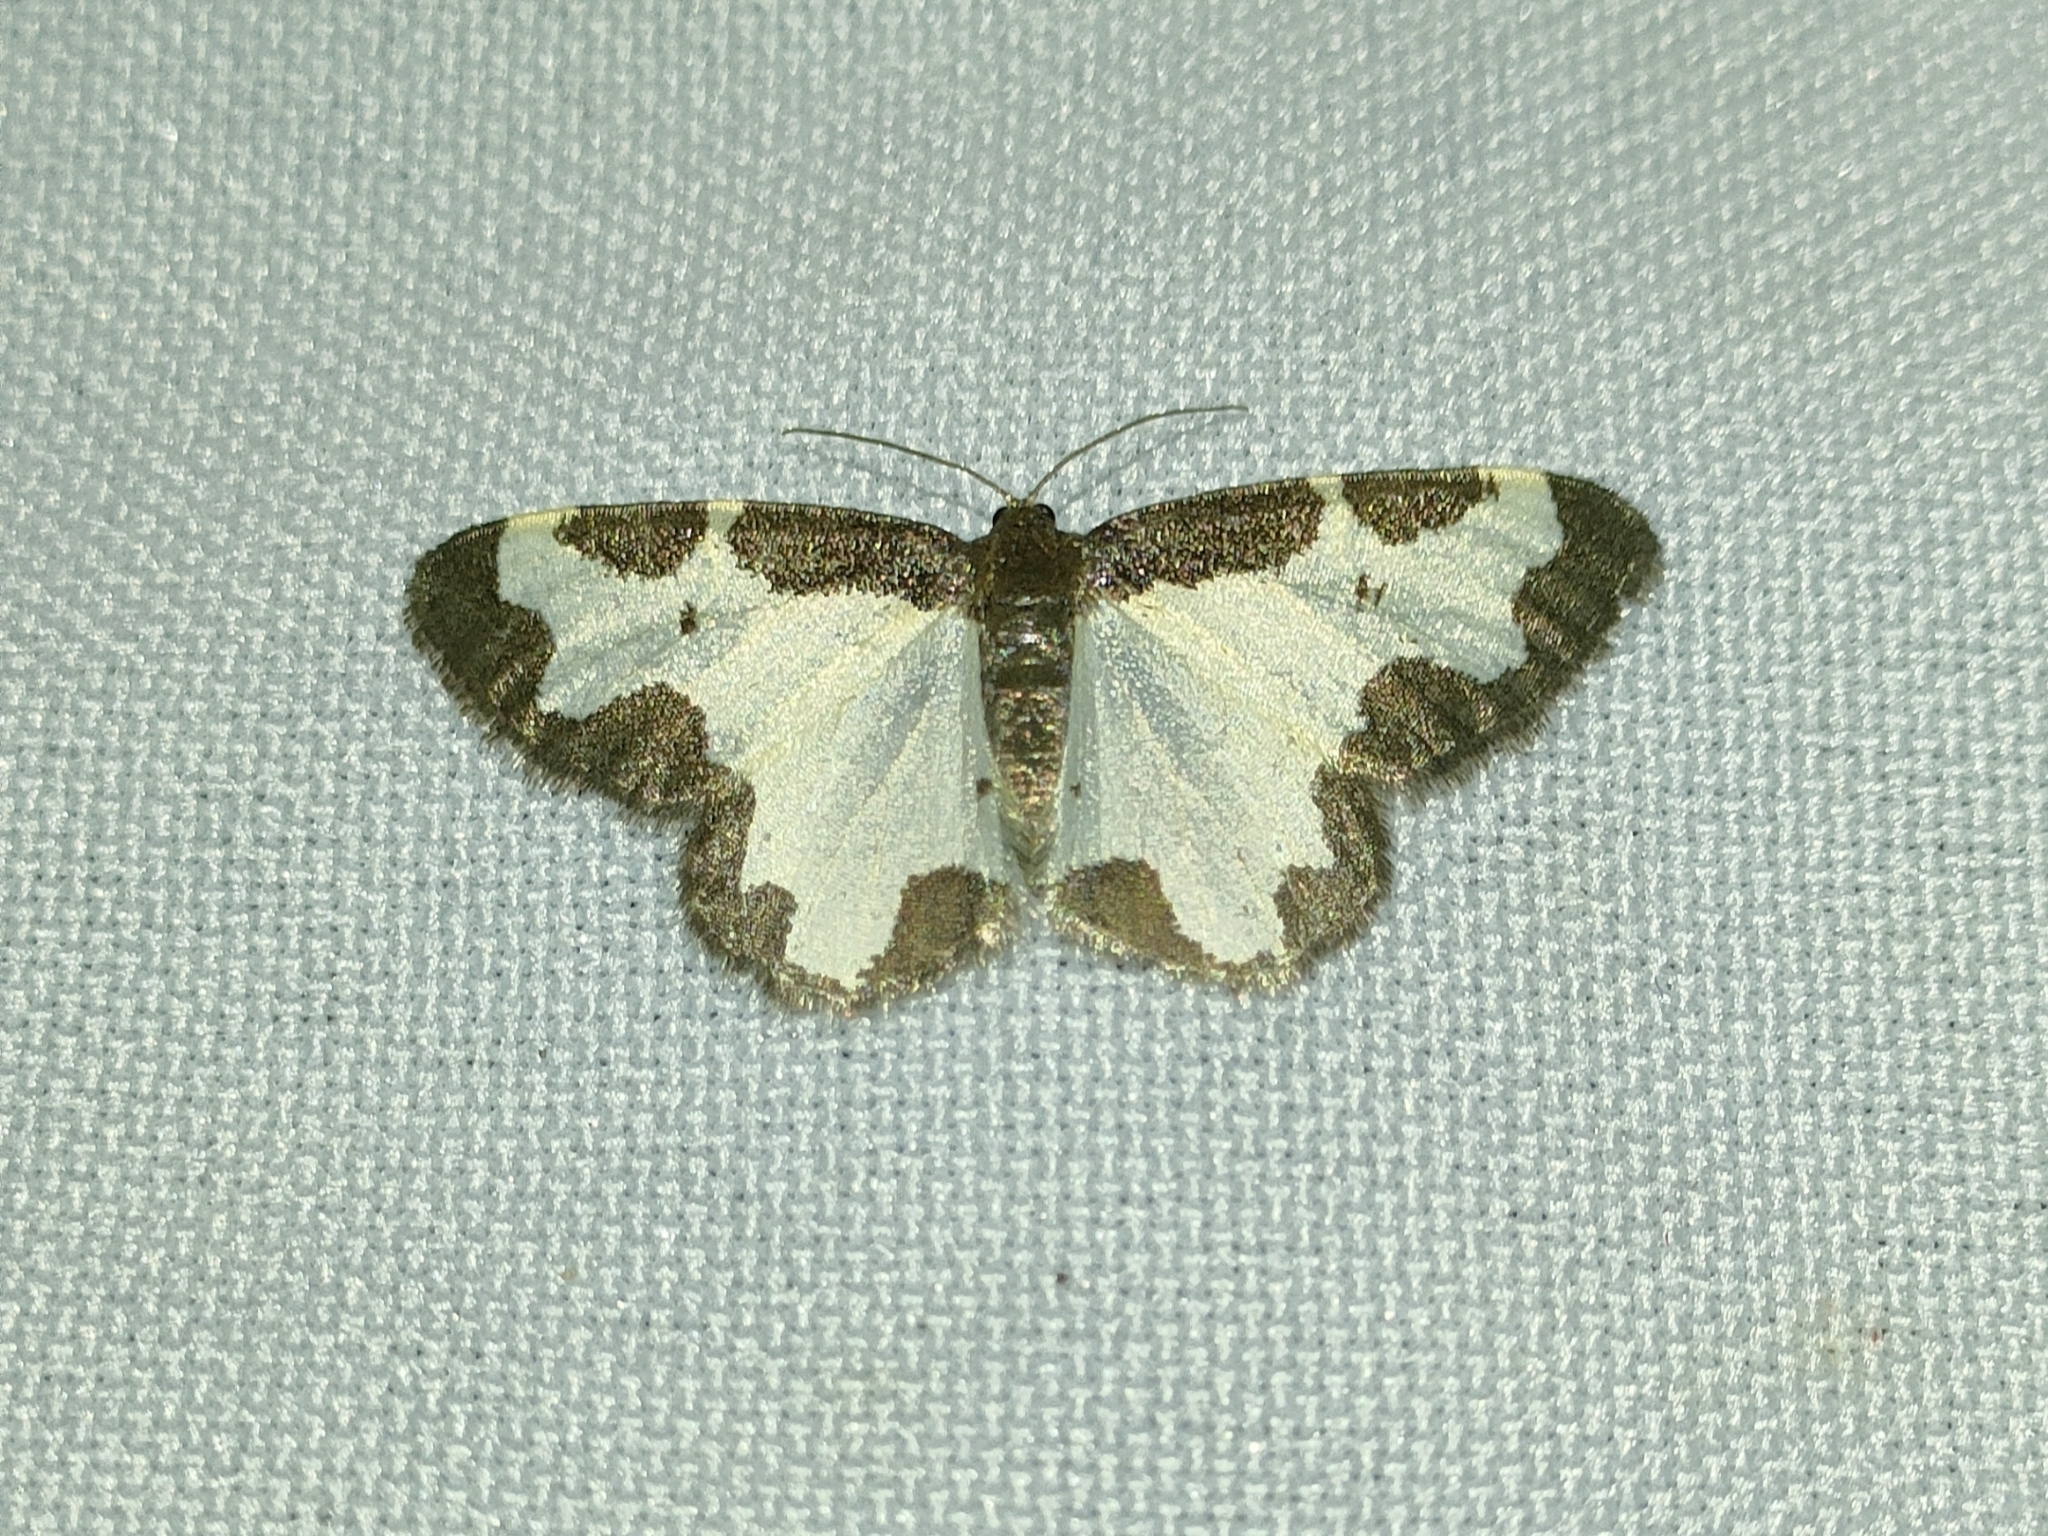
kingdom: Animalia
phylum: Arthropoda
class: Insecta
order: Lepidoptera
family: Geometridae
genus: Lomaspilis
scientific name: Lomaspilis marginata
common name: Clouded border
